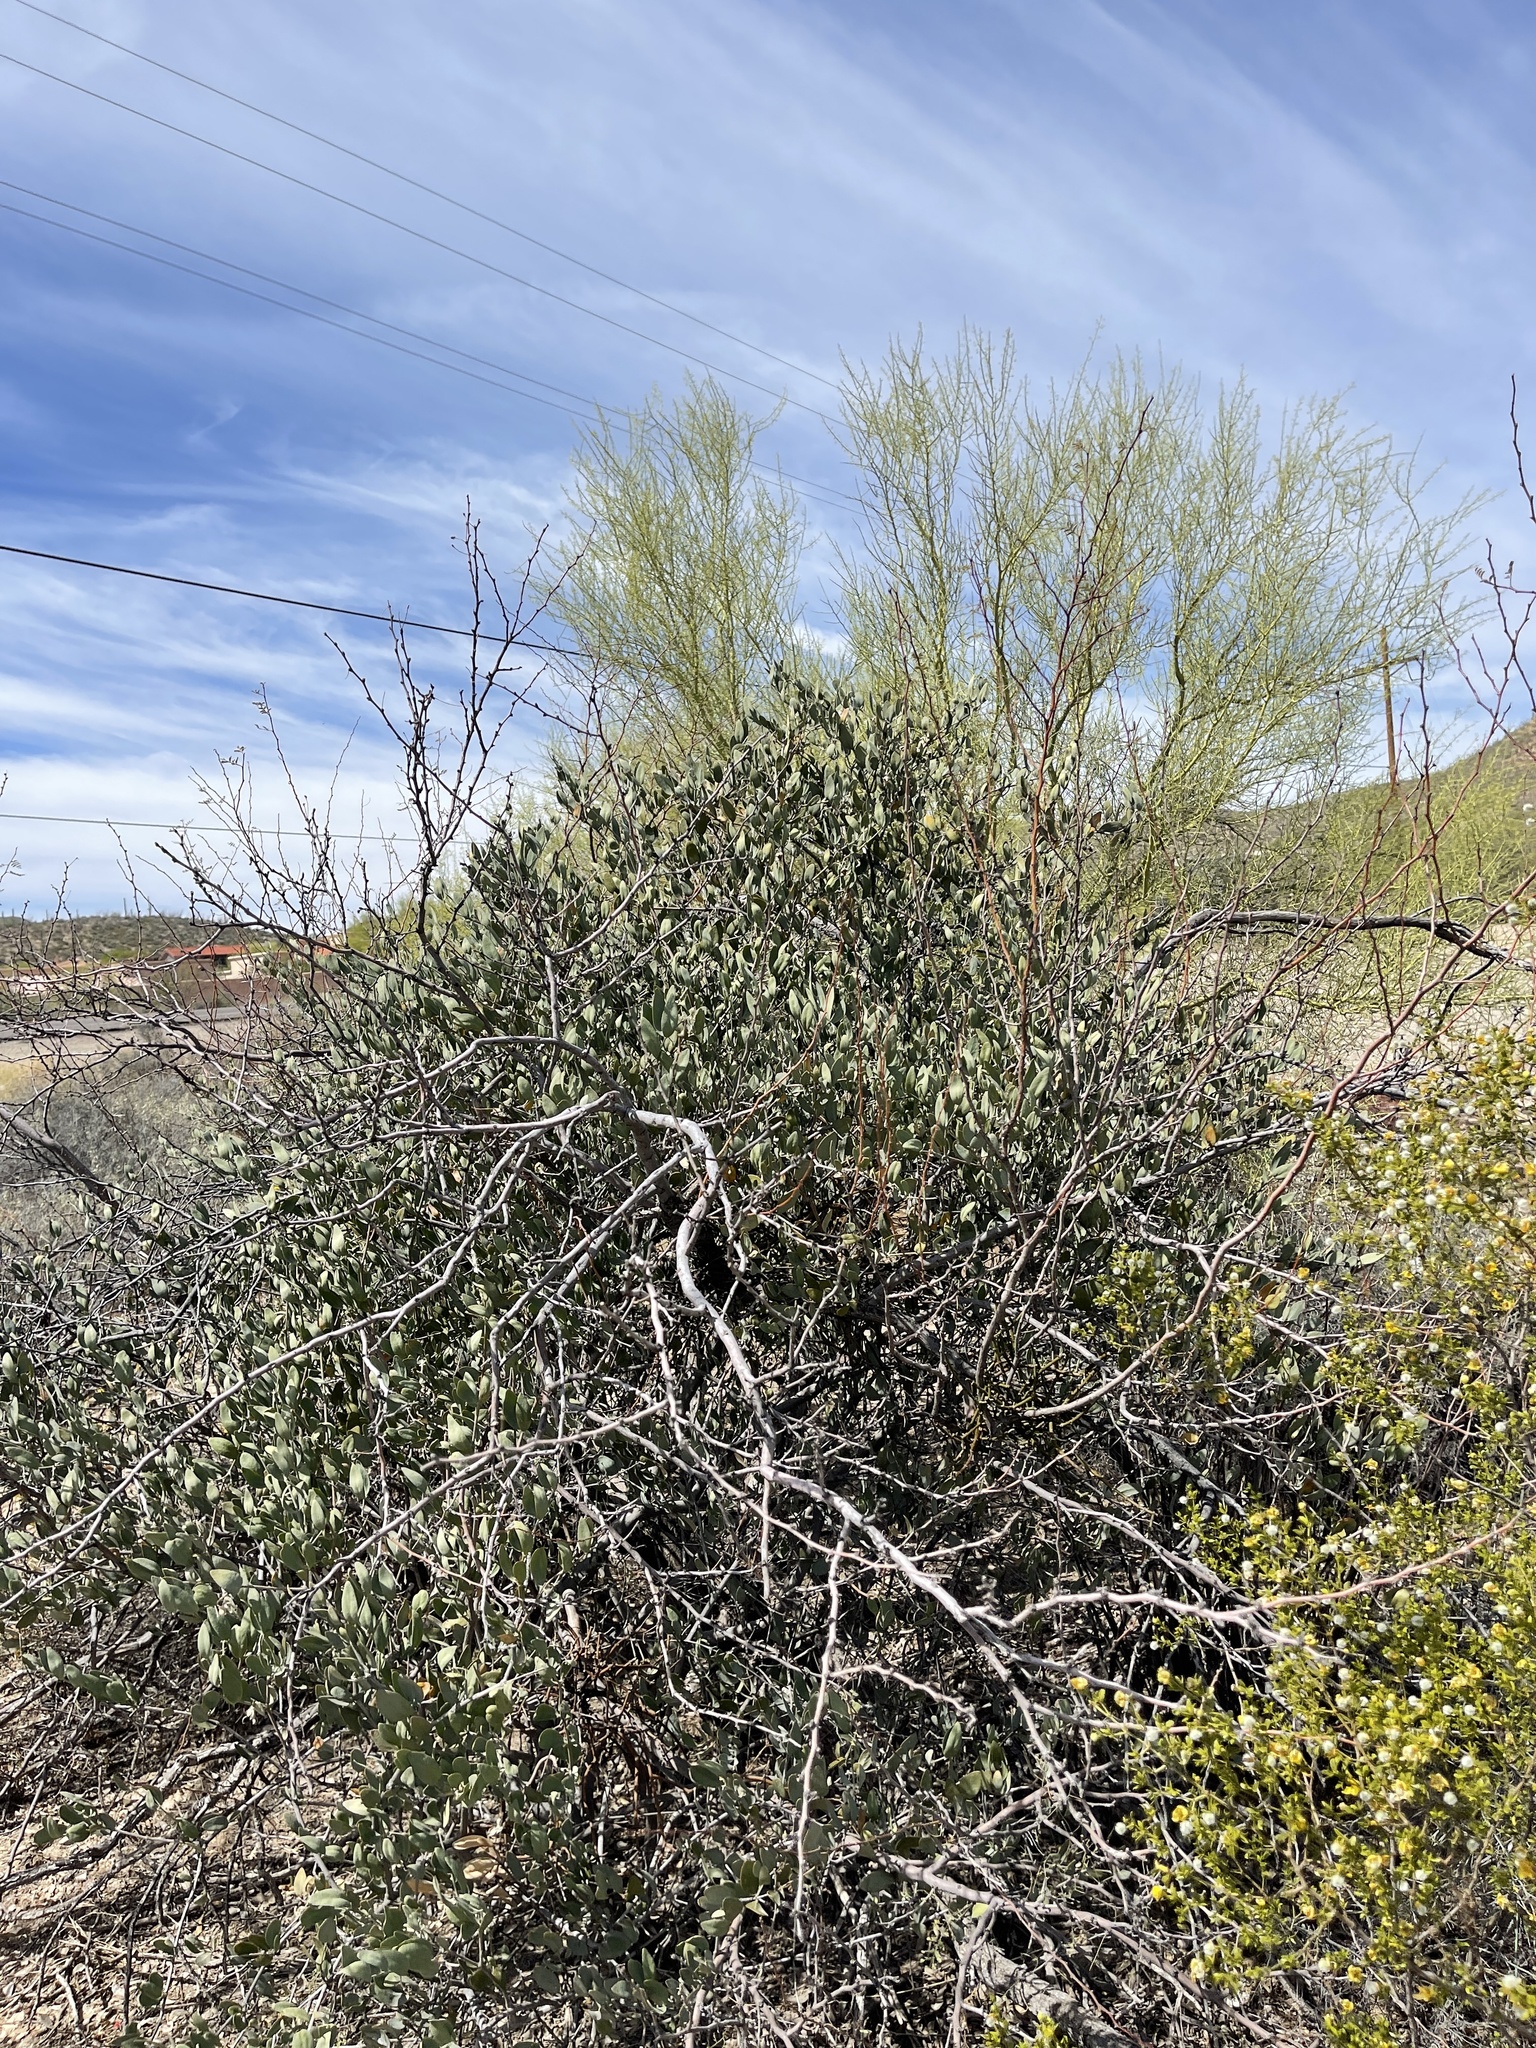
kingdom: Plantae
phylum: Tracheophyta
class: Magnoliopsida
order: Caryophyllales
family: Simmondsiaceae
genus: Simmondsia
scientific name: Simmondsia chinensis
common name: Jojoba
